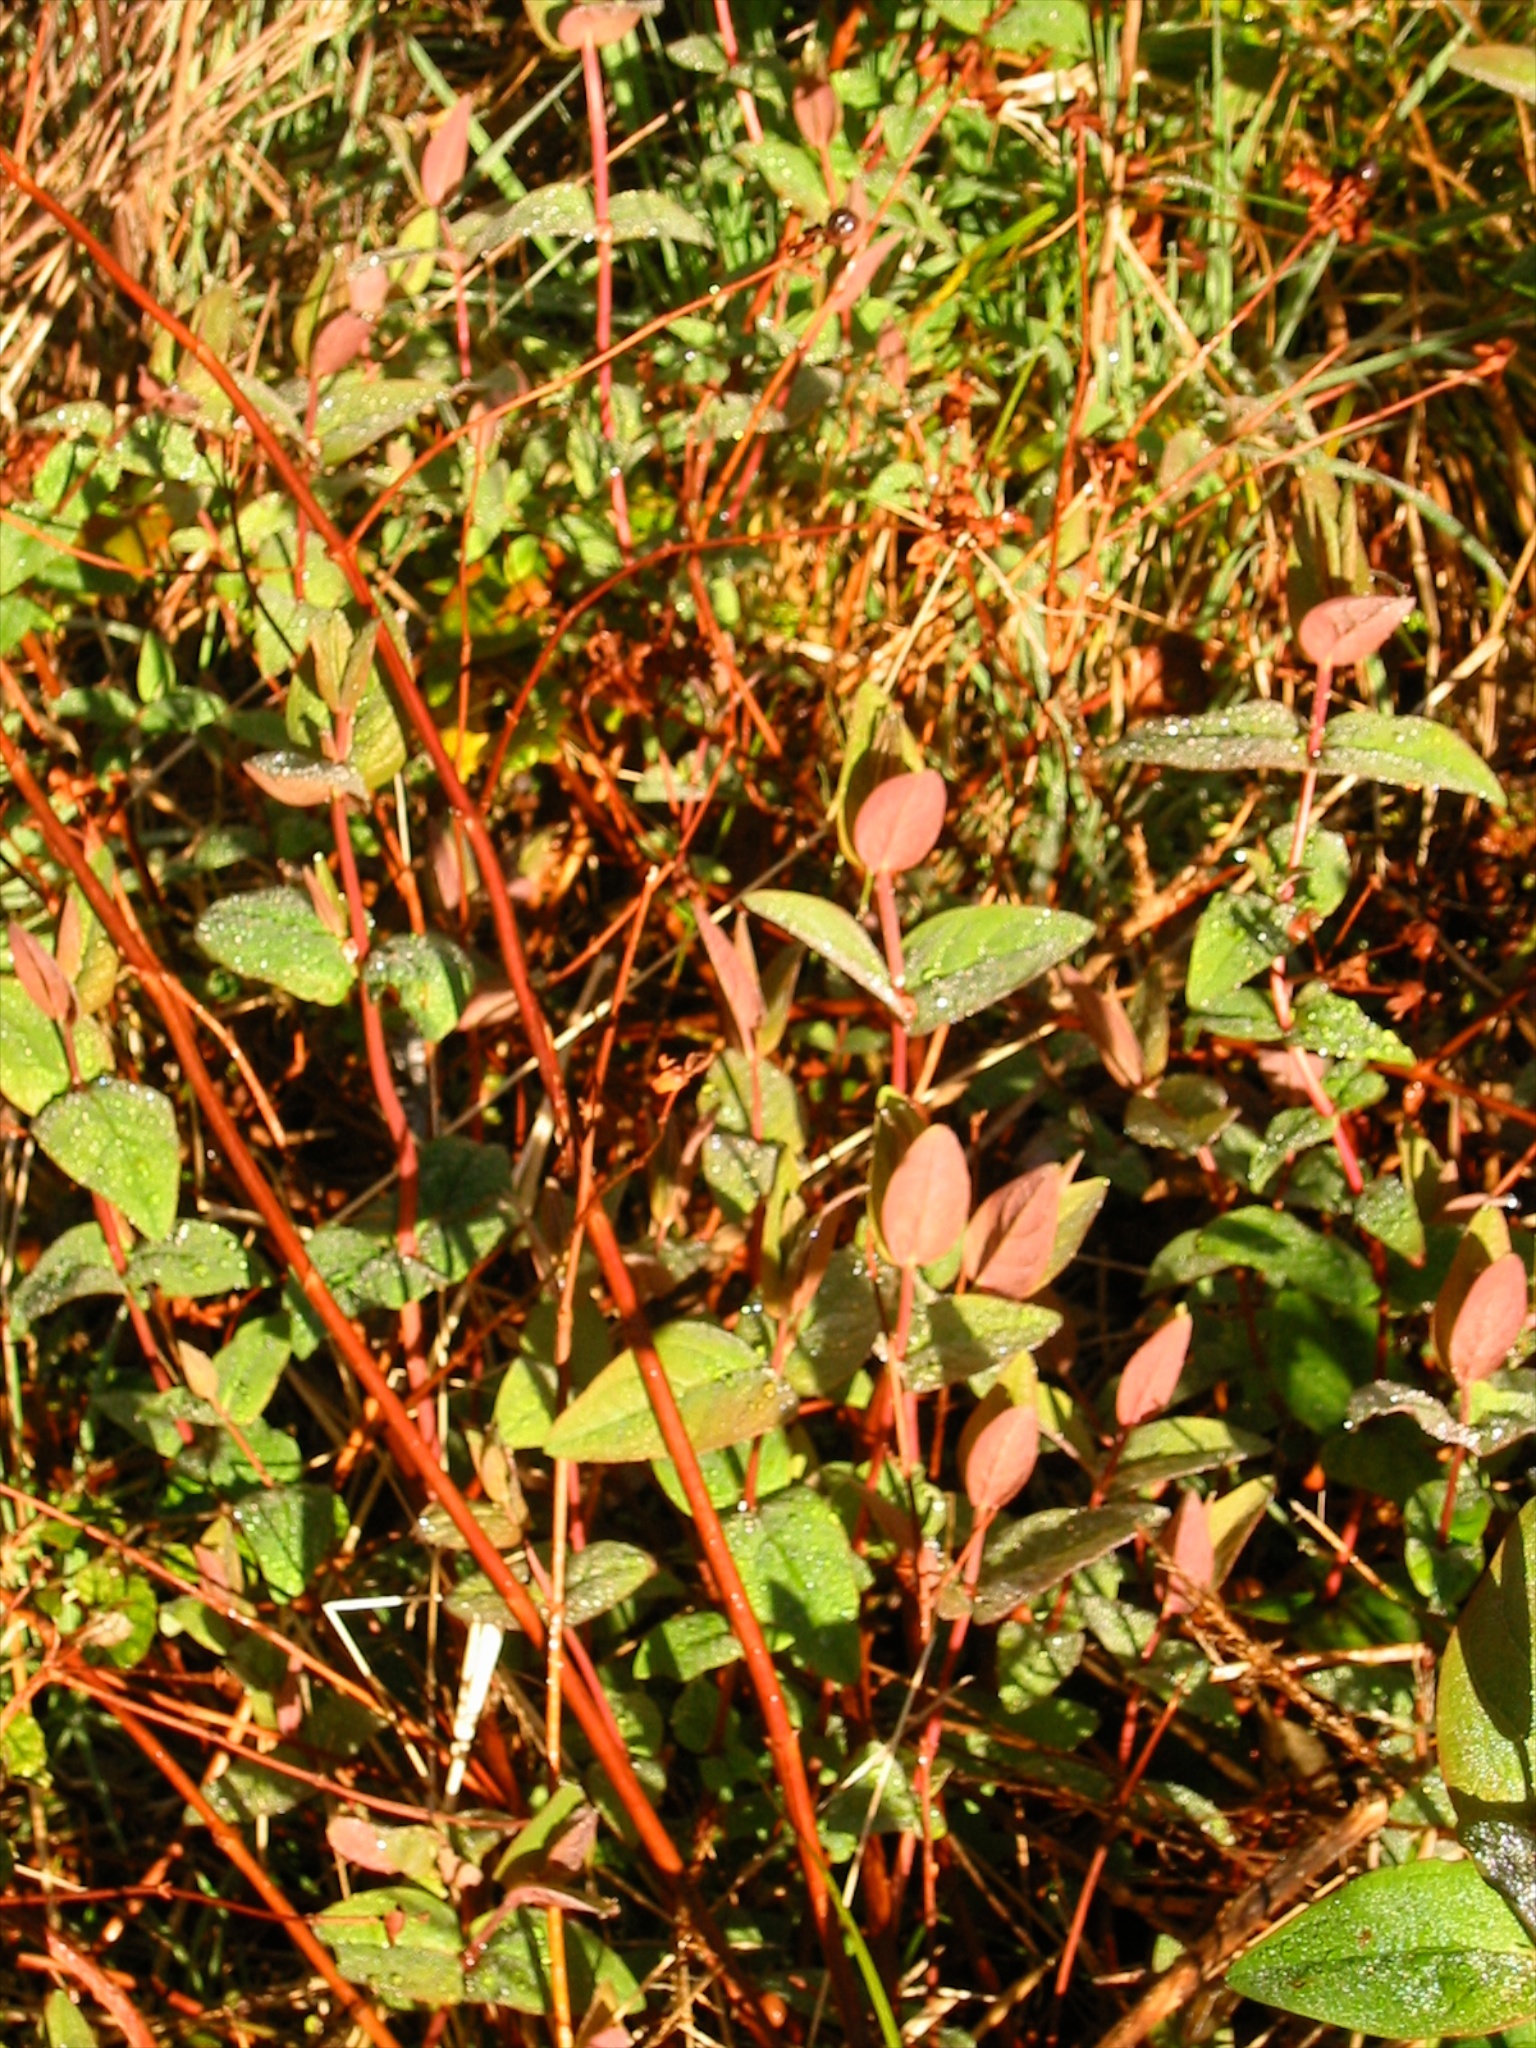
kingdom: Plantae
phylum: Tracheophyta
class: Magnoliopsida
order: Malpighiales
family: Hypericaceae
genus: Hypericum
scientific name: Hypericum androsaemum
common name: Sweet-amber
